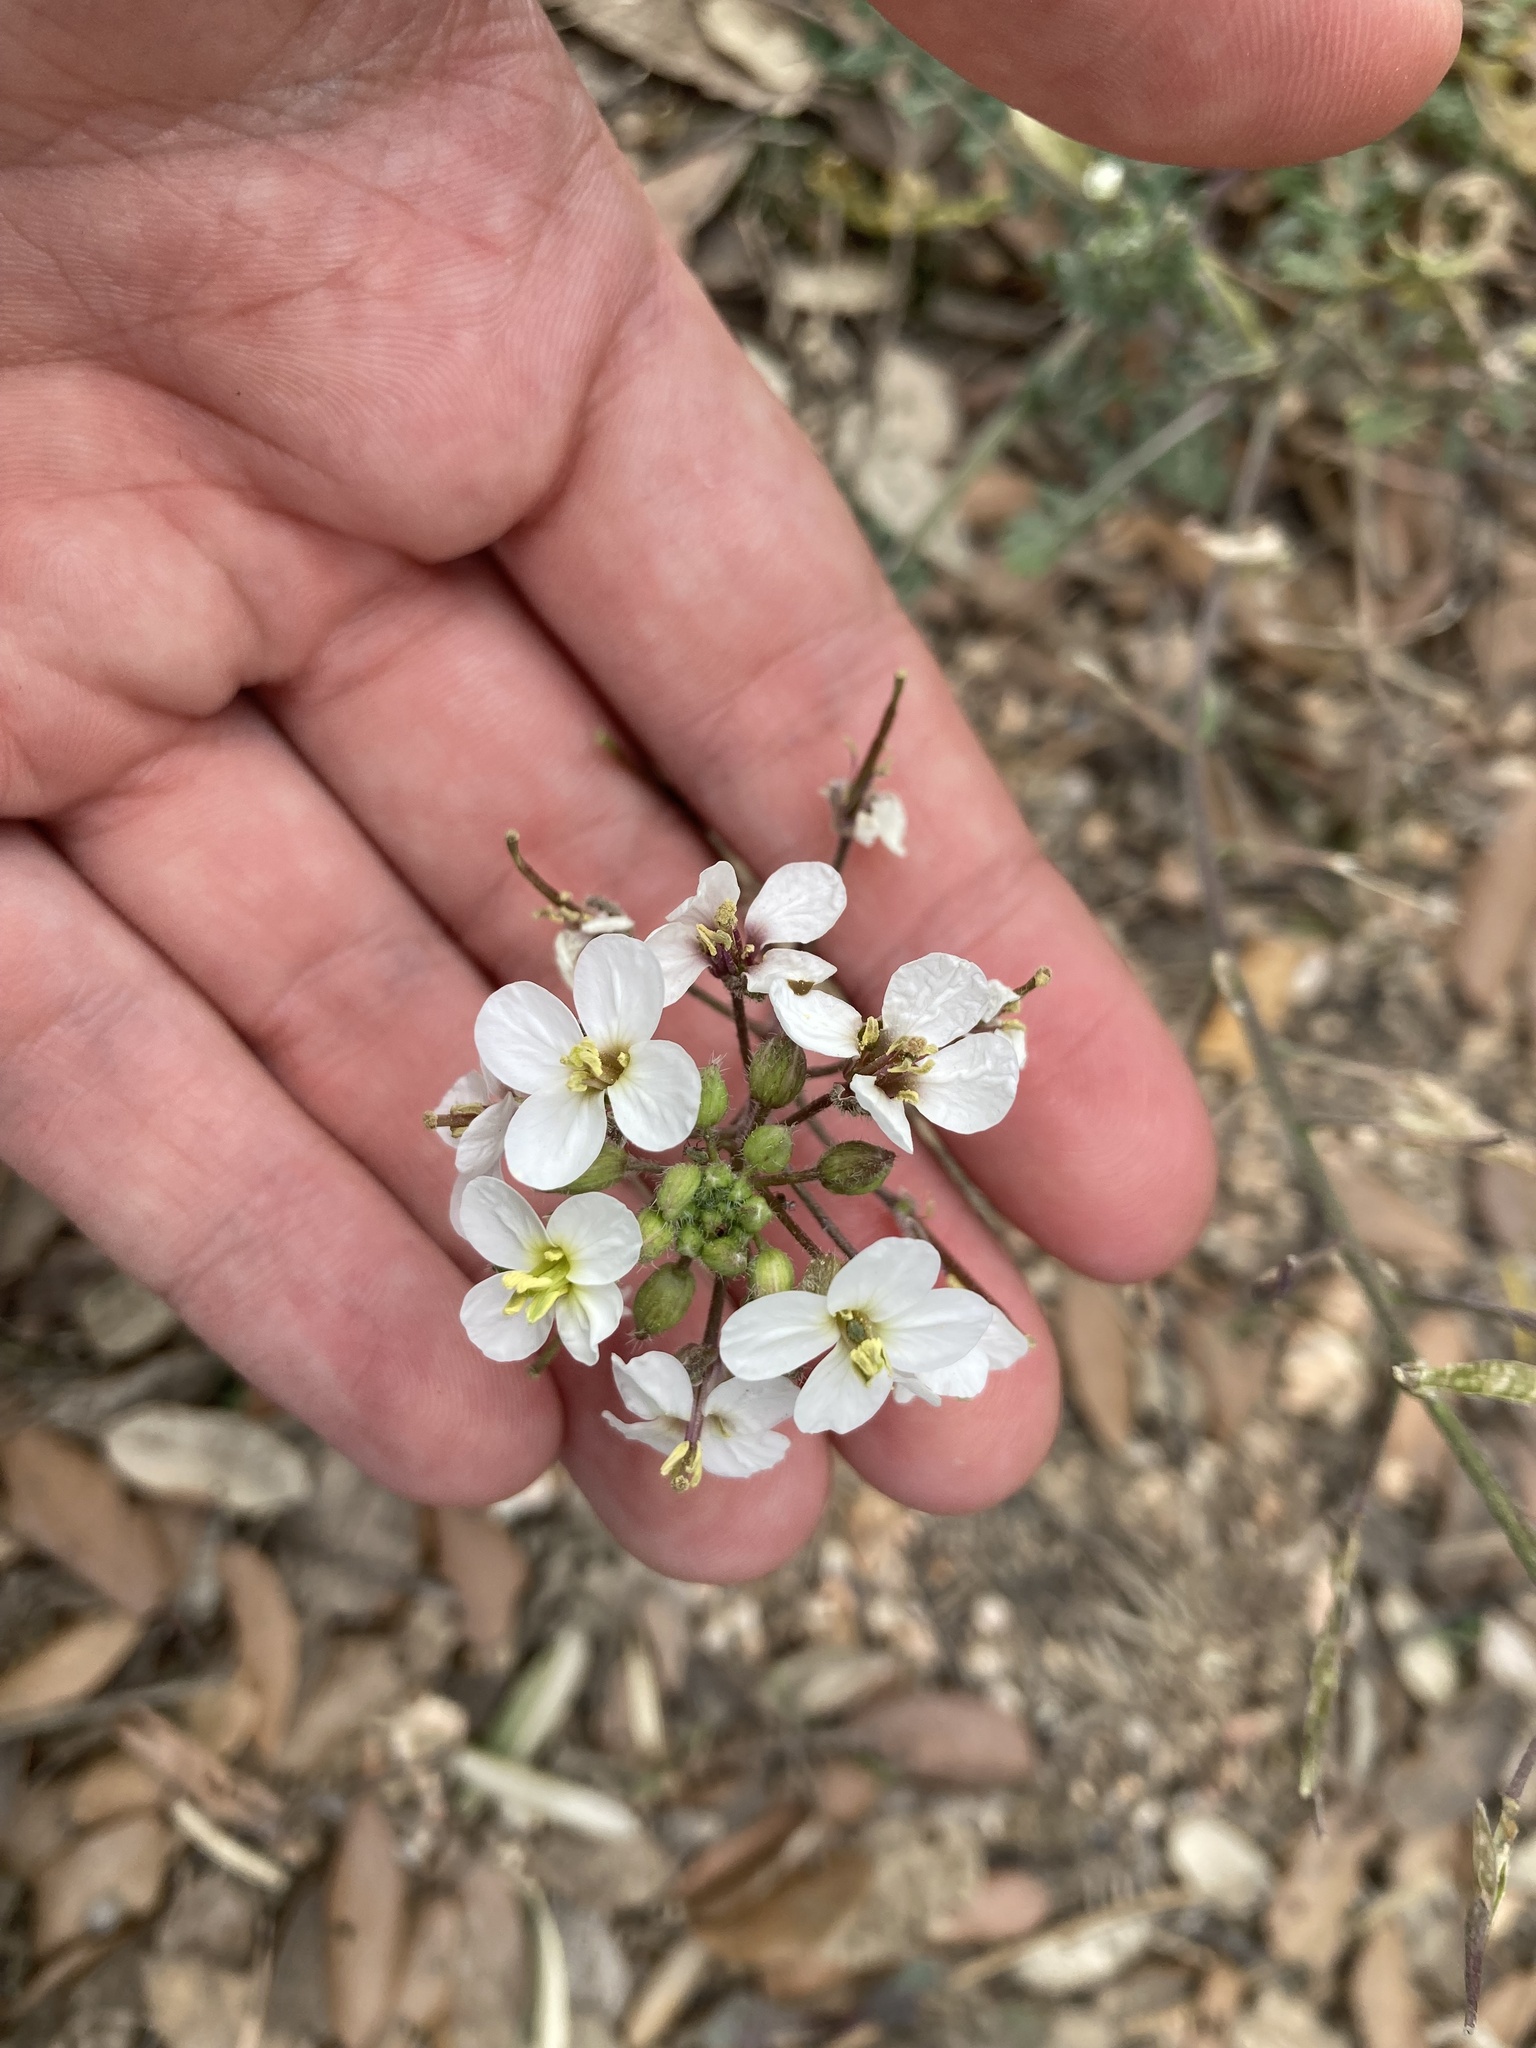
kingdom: Plantae
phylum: Tracheophyta
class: Magnoliopsida
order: Brassicales
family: Brassicaceae
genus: Diplotaxis
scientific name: Diplotaxis erucoides
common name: White rocket
